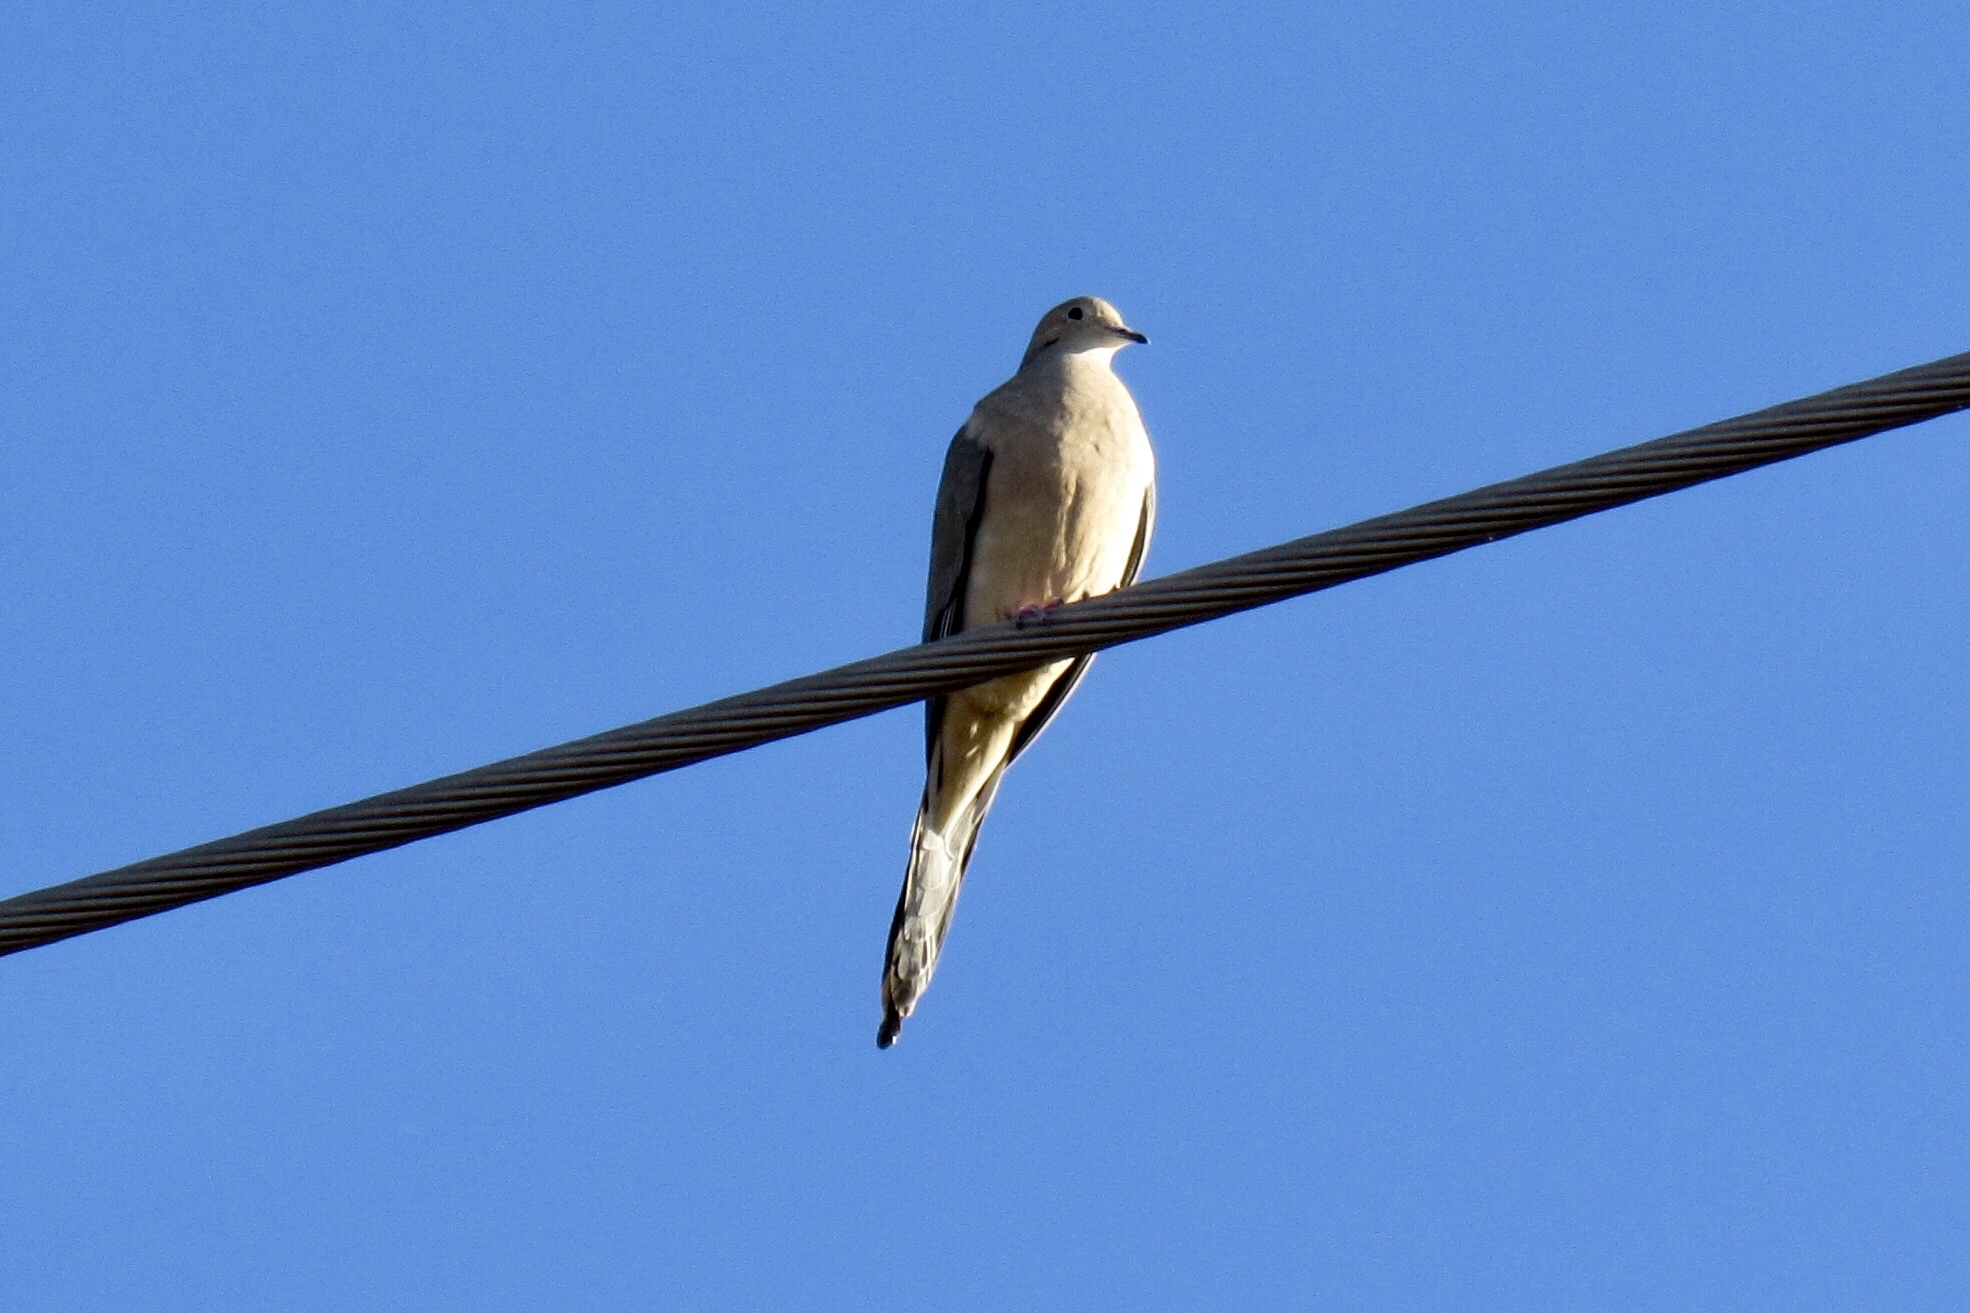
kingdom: Animalia
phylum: Chordata
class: Aves
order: Columbiformes
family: Columbidae
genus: Zenaida
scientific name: Zenaida macroura
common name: Mourning dove
